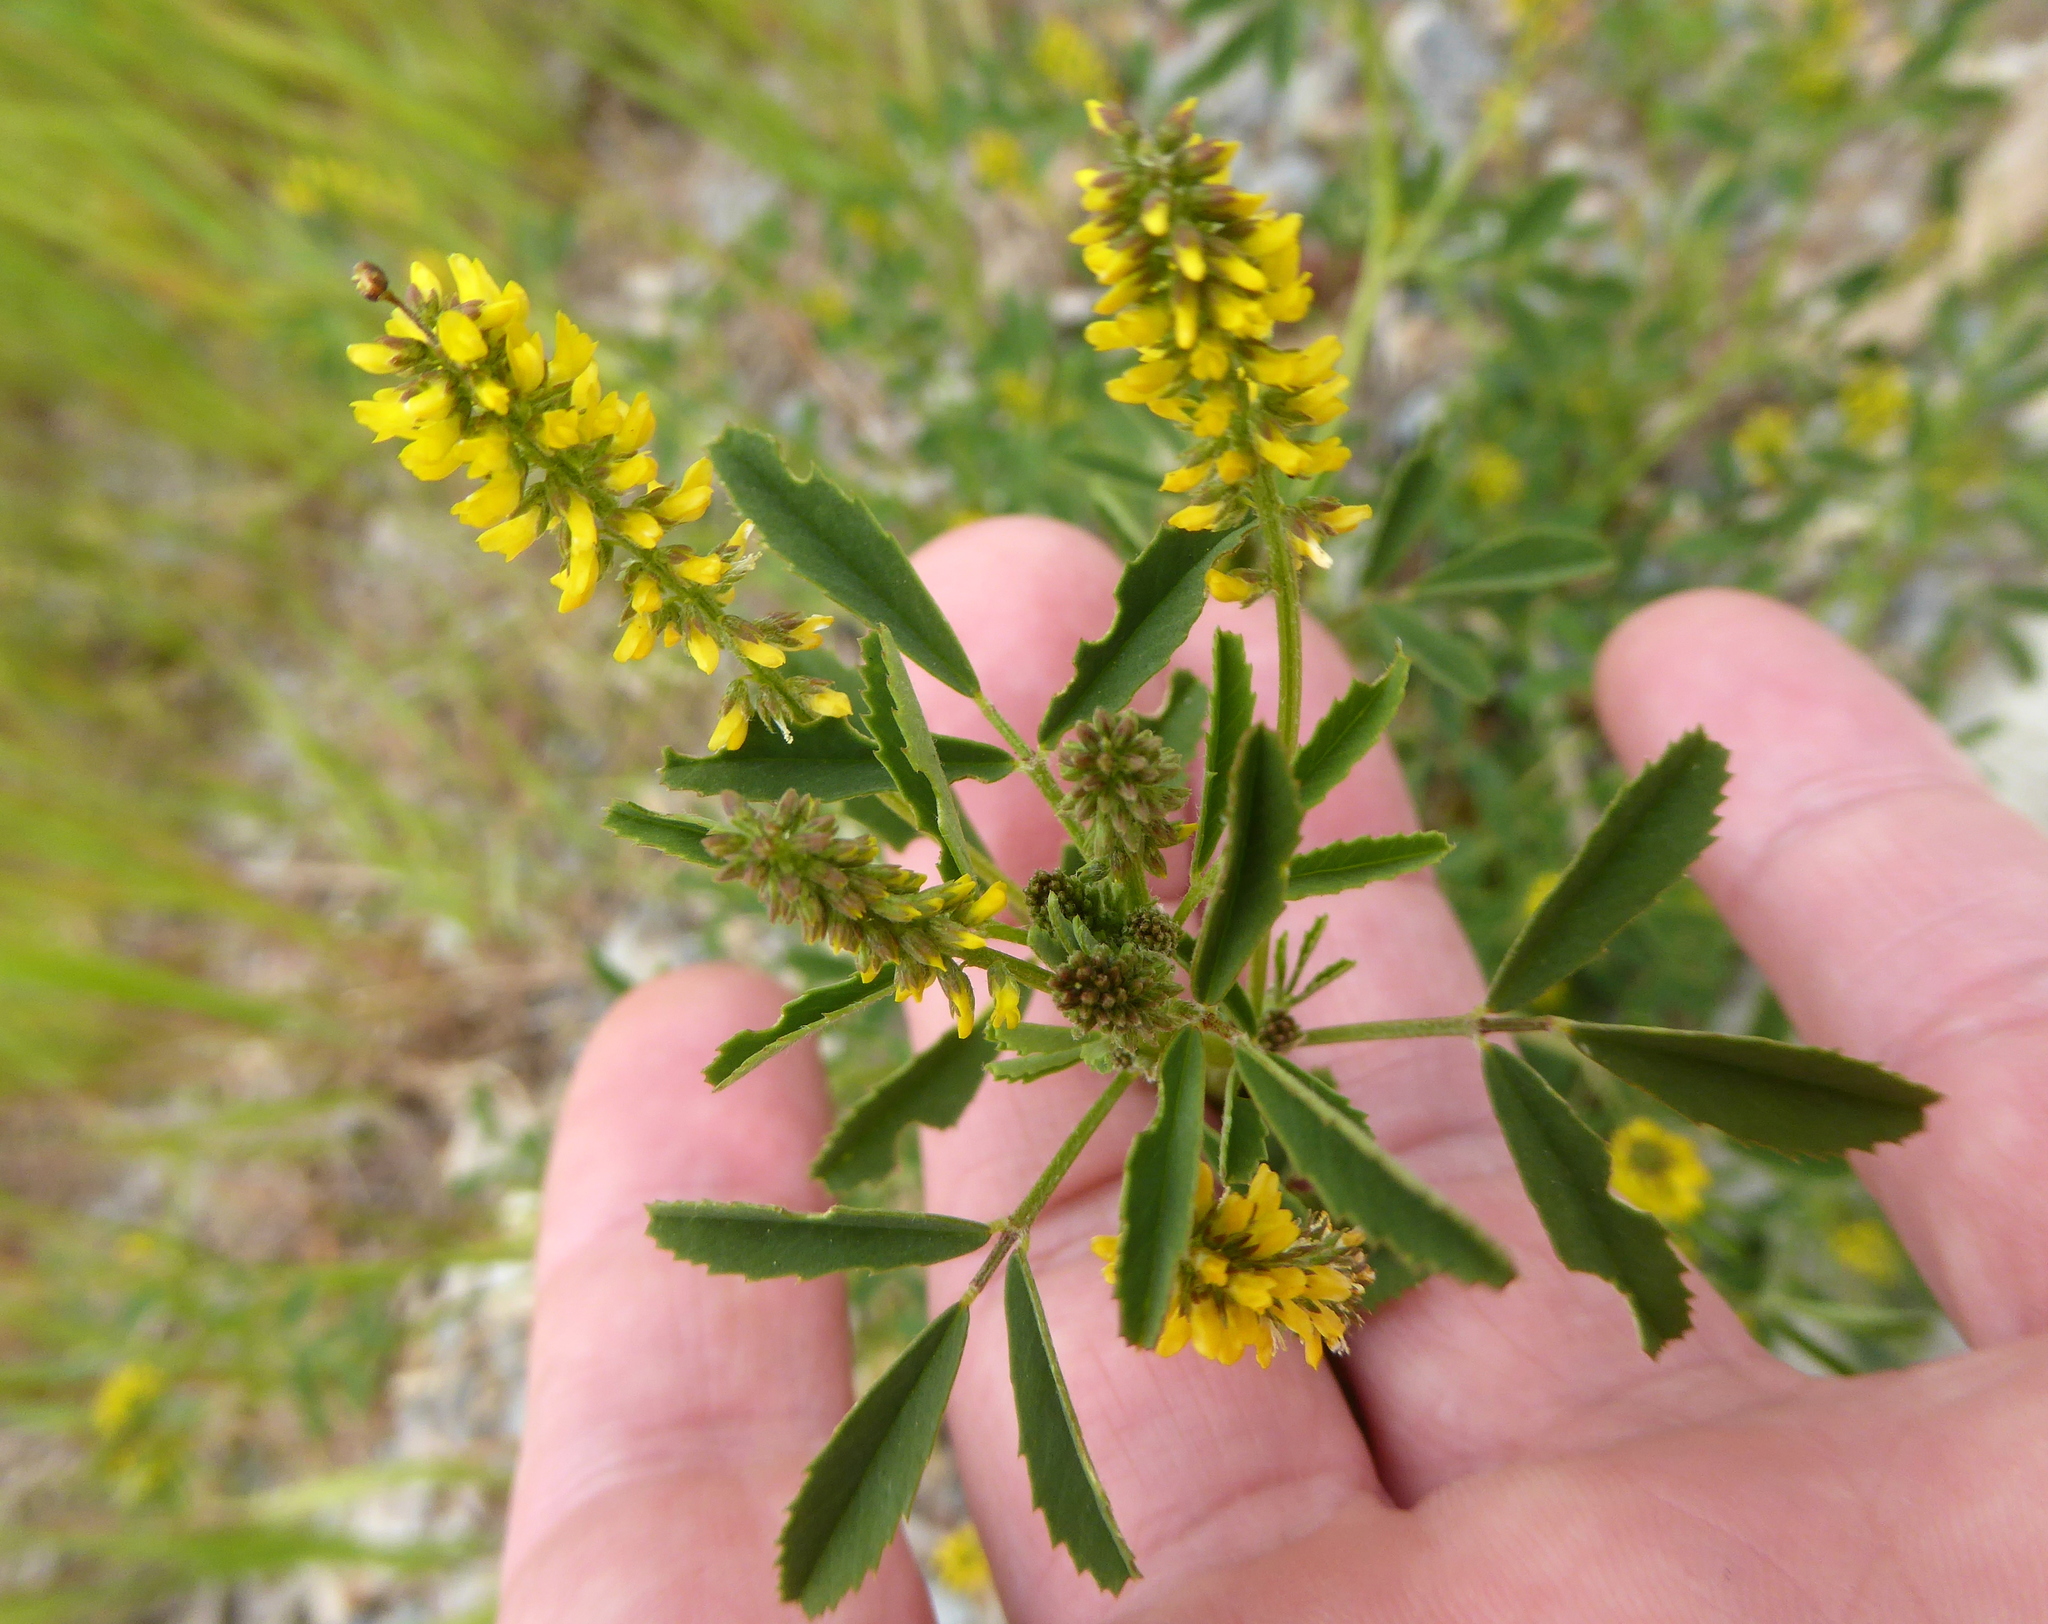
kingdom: Plantae
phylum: Tracheophyta
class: Magnoliopsida
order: Fabales
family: Fabaceae
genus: Melilotus
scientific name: Melilotus indicus
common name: Small melilot
